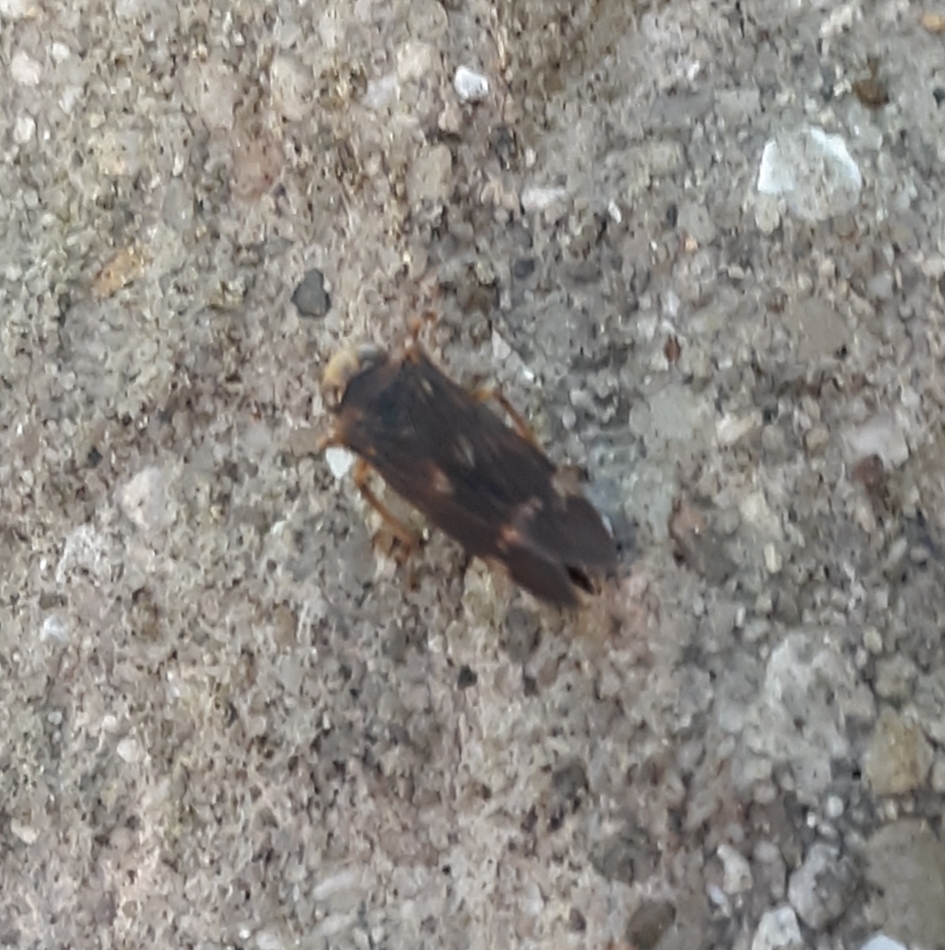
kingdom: Animalia
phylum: Arthropoda
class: Insecta
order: Hemiptera
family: Cicadellidae
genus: Jikradia
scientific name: Jikradia olitoria
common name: Coppery leafhopper
